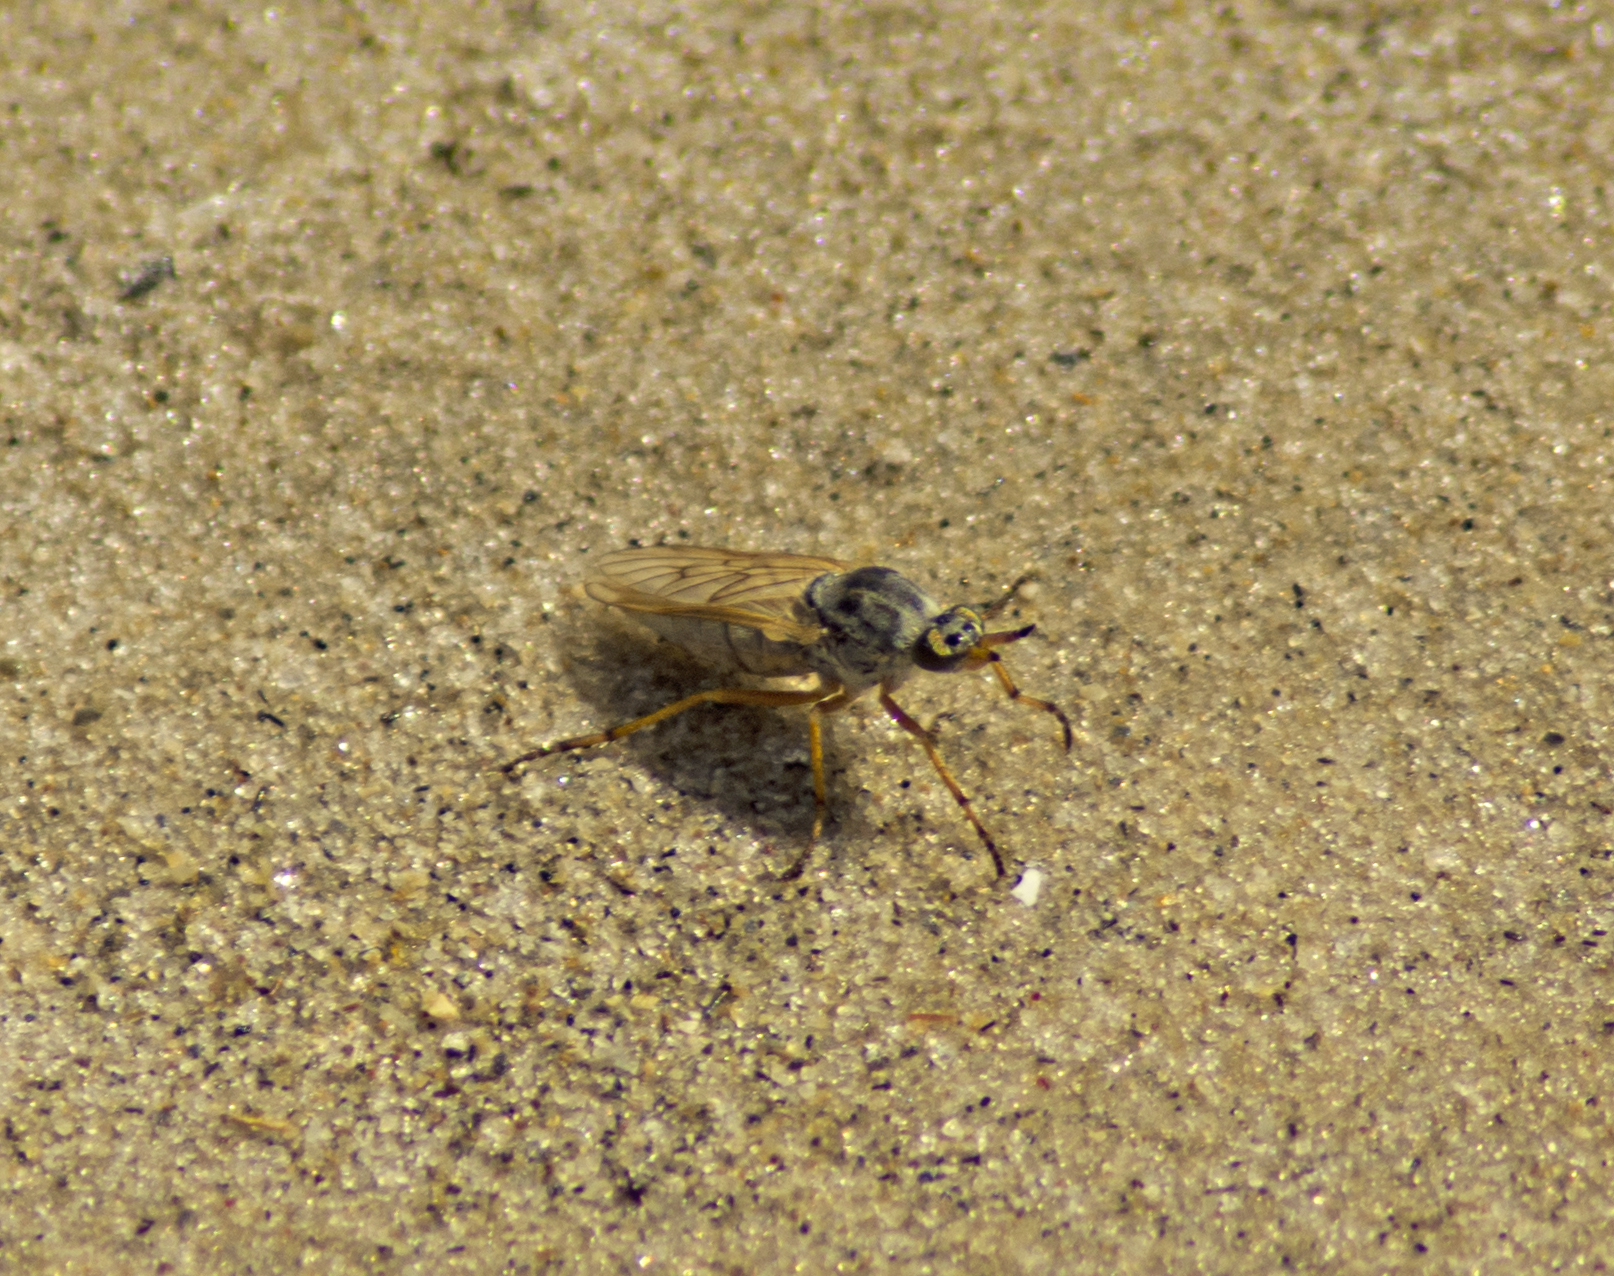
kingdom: Animalia
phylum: Arthropoda
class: Insecta
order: Diptera
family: Therevidae
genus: Anabarhynchus
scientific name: Anabarhynchus latifrons
